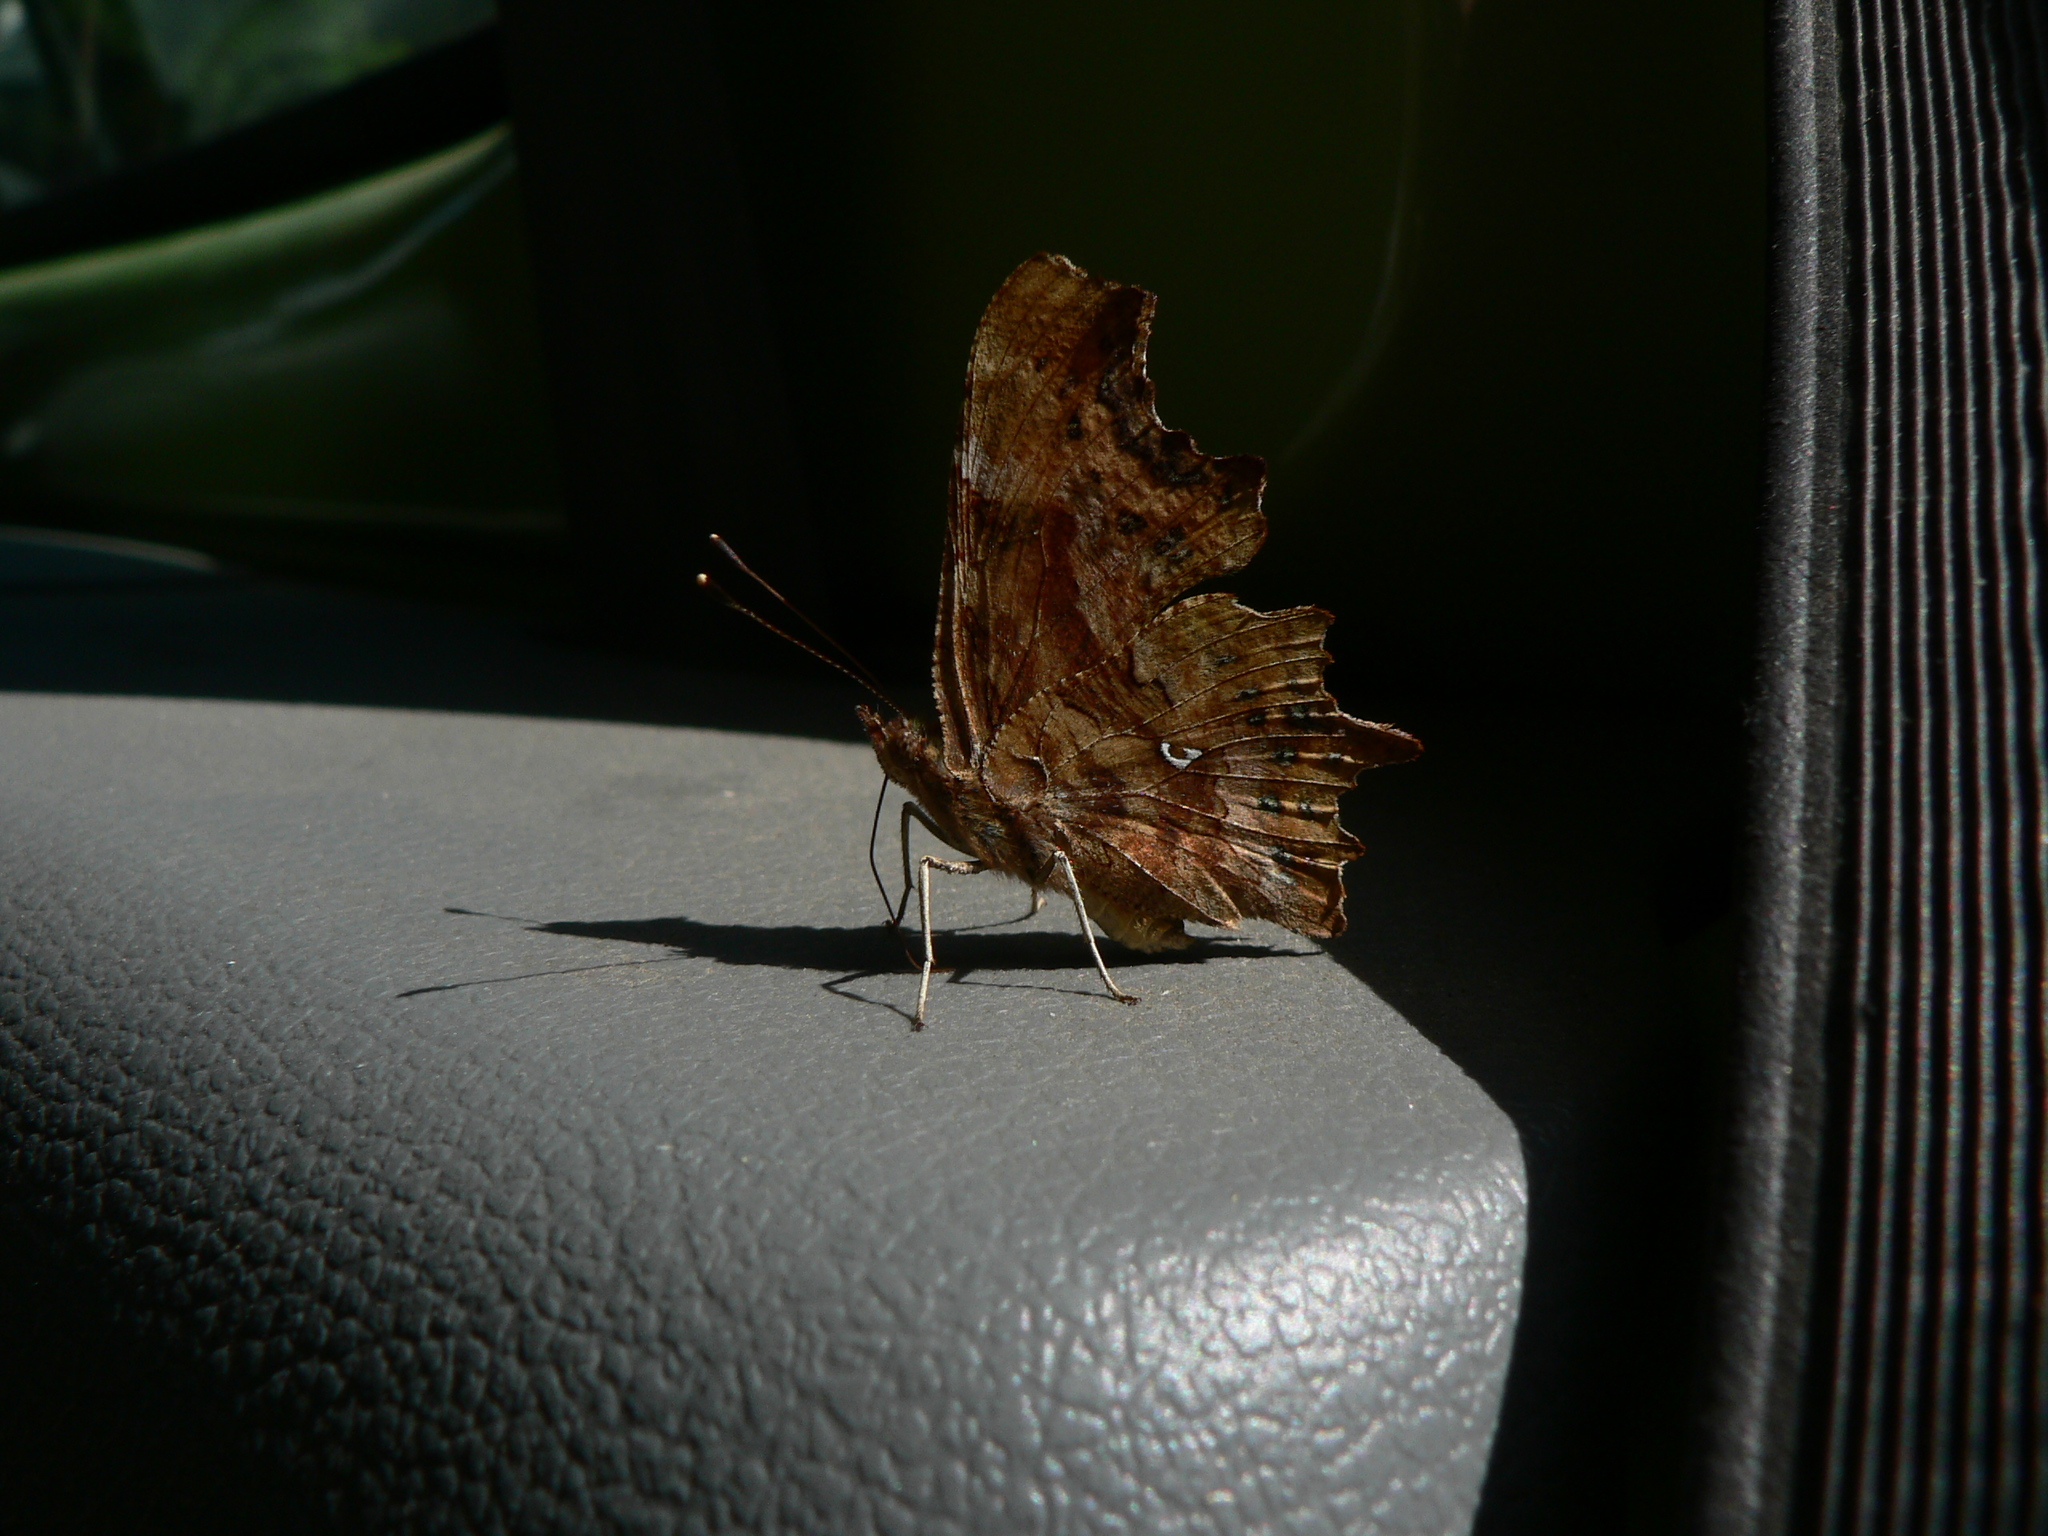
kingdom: Animalia
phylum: Arthropoda
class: Insecta
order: Lepidoptera
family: Nymphalidae
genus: Polygonia
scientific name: Polygonia c-album
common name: Comma
